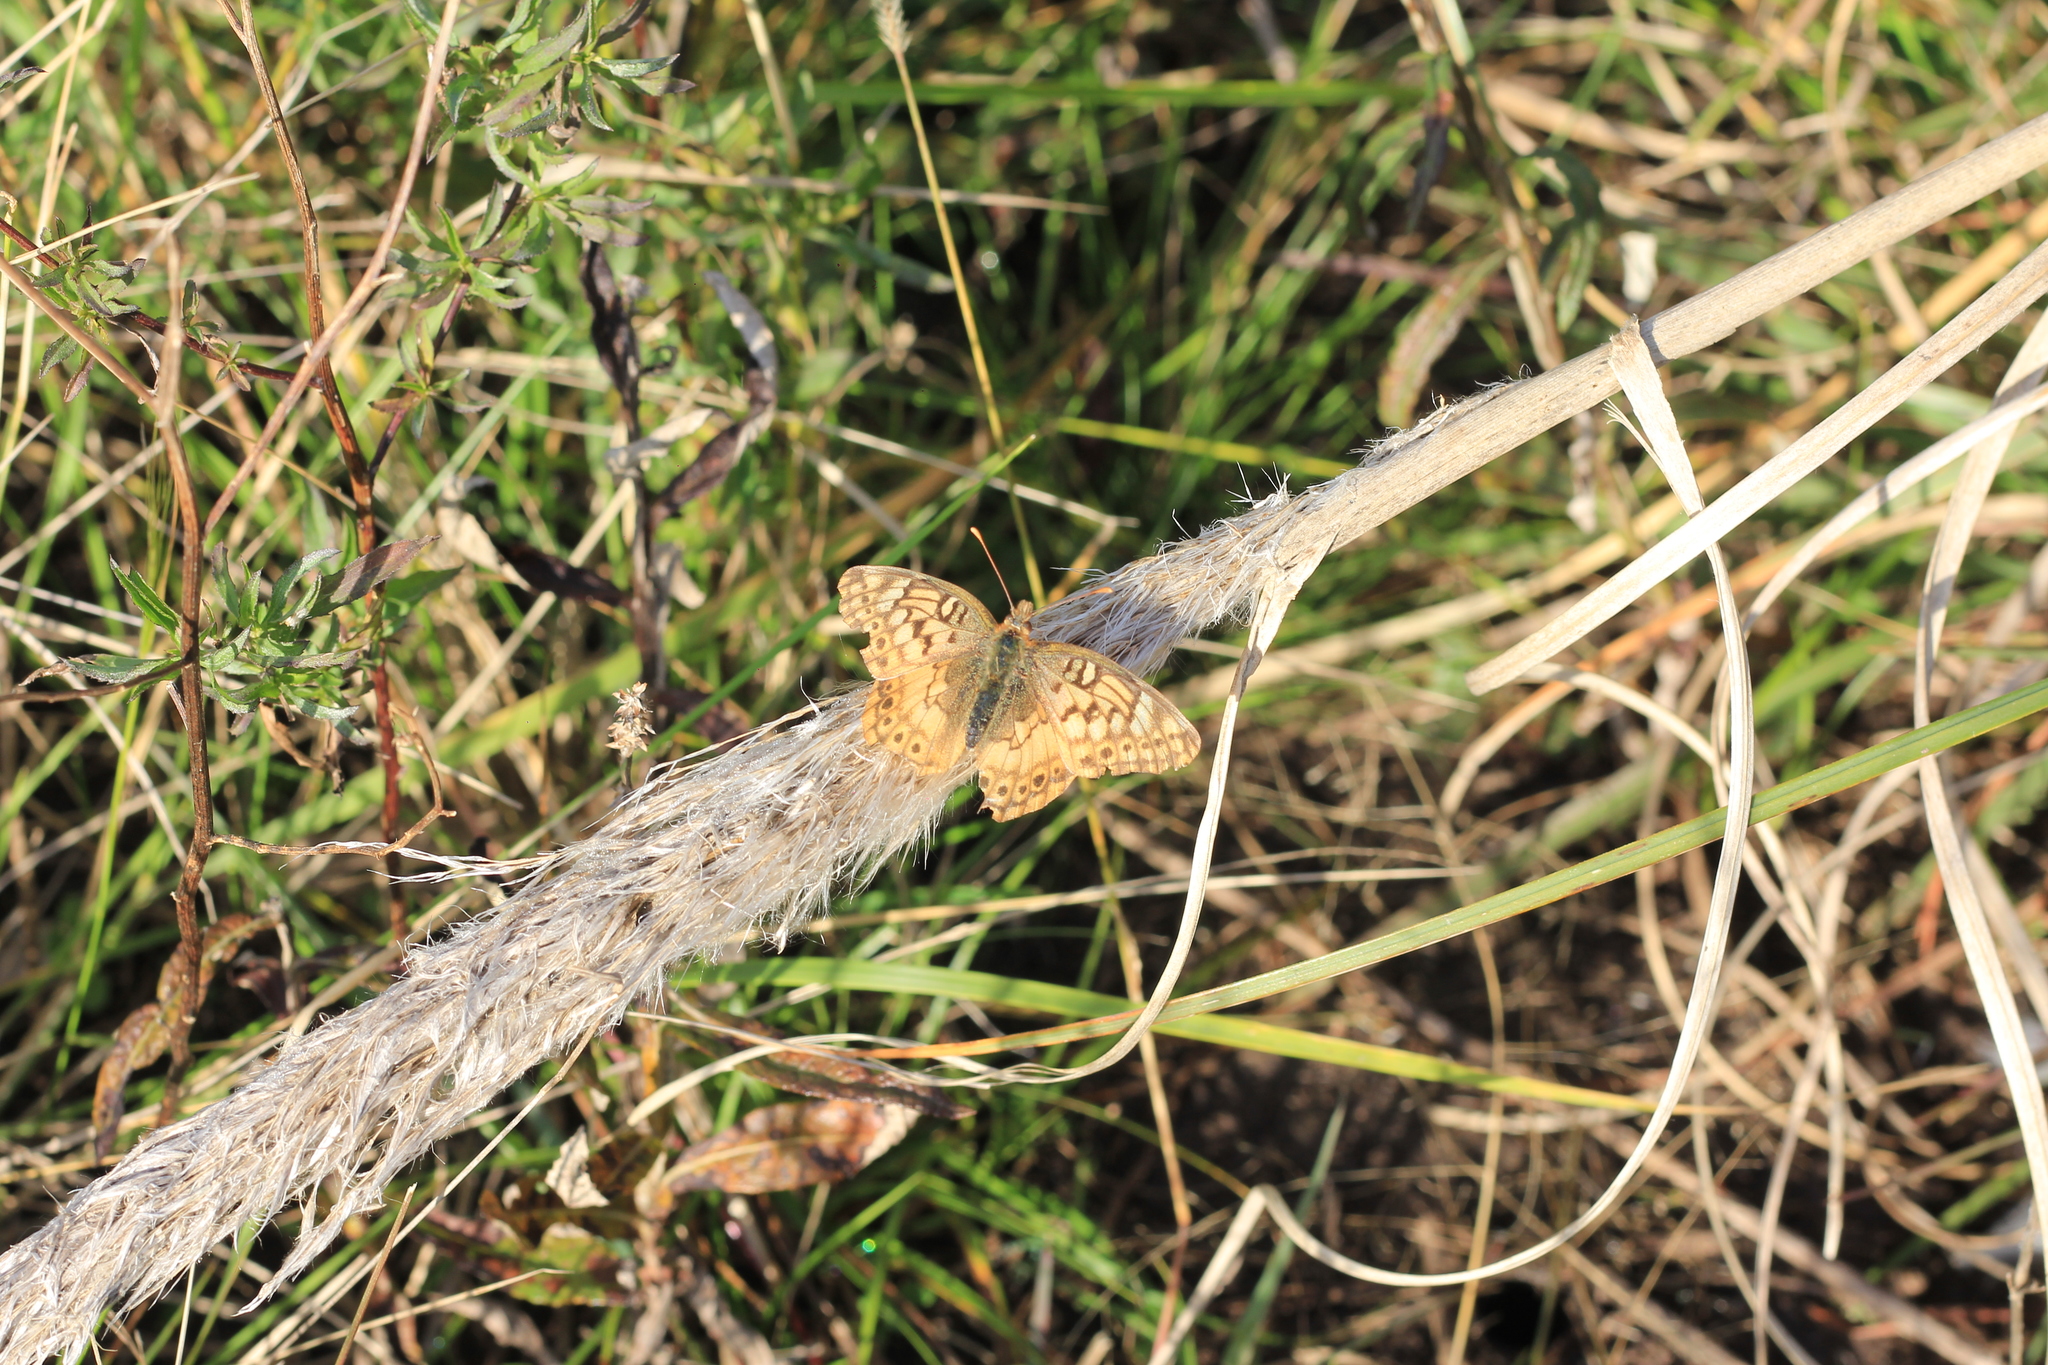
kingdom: Animalia
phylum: Arthropoda
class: Insecta
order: Lepidoptera
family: Nymphalidae
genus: Euptoieta
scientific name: Euptoieta hortensia
